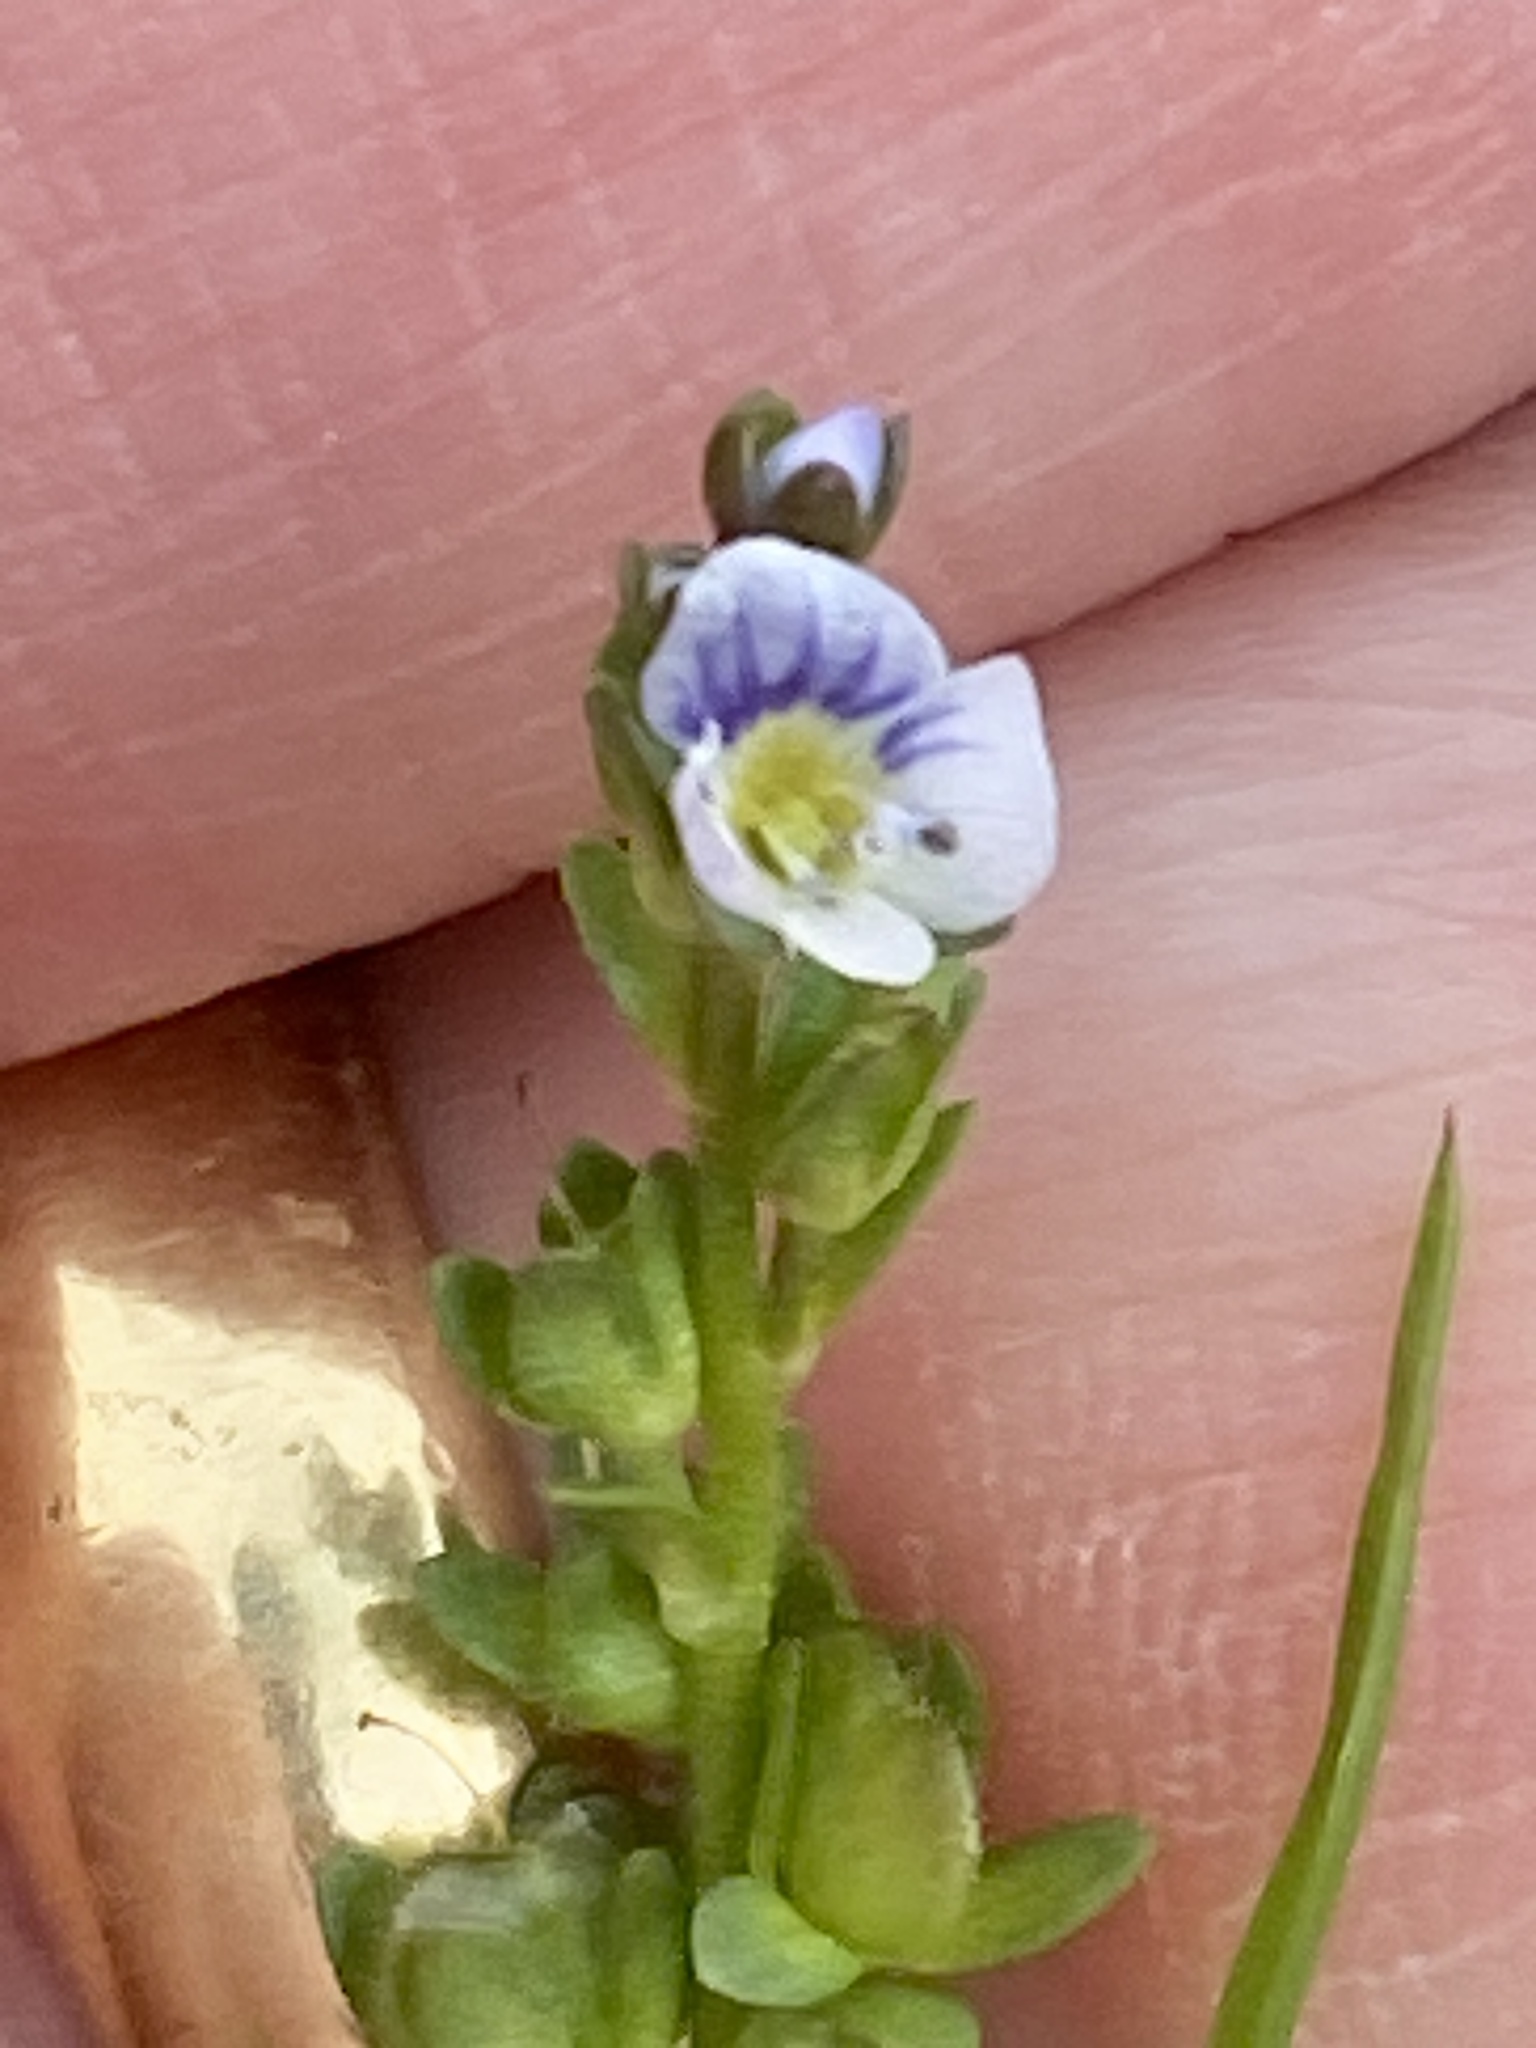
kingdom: Plantae
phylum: Tracheophyta
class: Magnoliopsida
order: Lamiales
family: Plantaginaceae
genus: Veronica
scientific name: Veronica serpyllifolia
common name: Thyme-leaved speedwell
